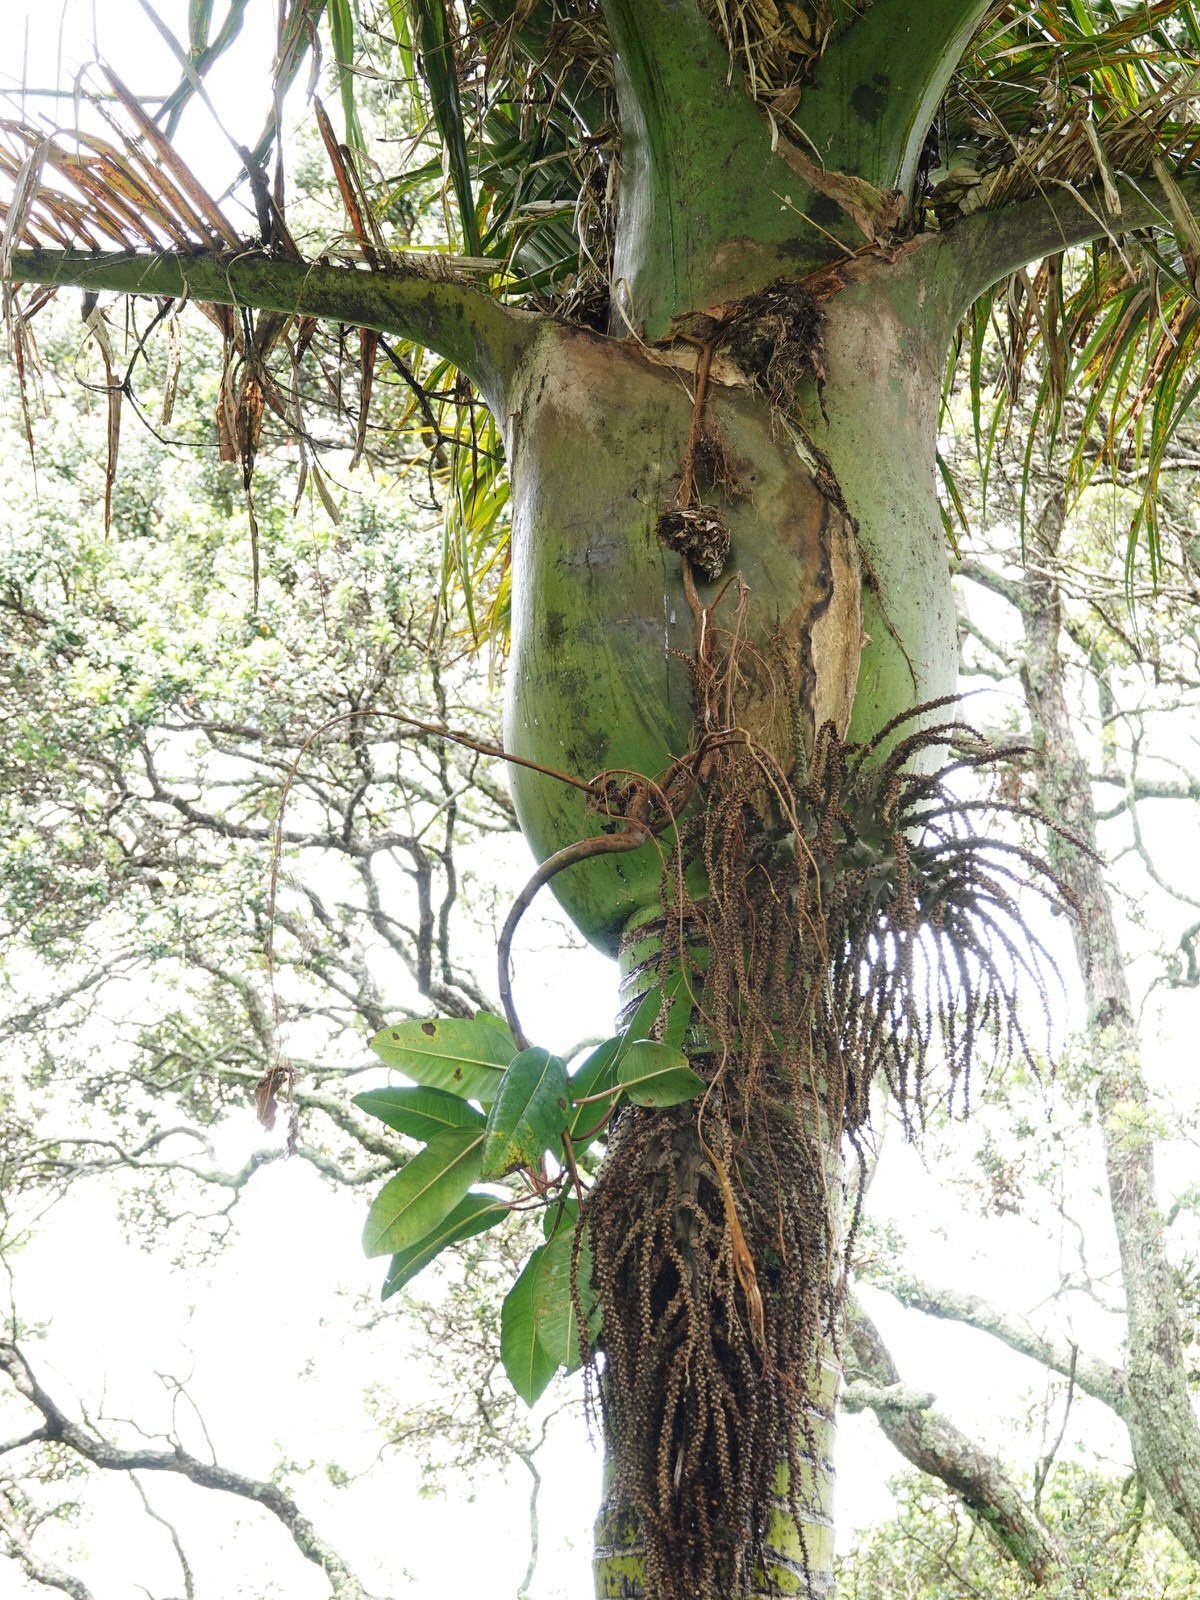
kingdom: Plantae
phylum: Tracheophyta
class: Magnoliopsida
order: Rosales
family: Moraceae
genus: Ficus
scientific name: Ficus macrophylla
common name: Moreton bay fig
